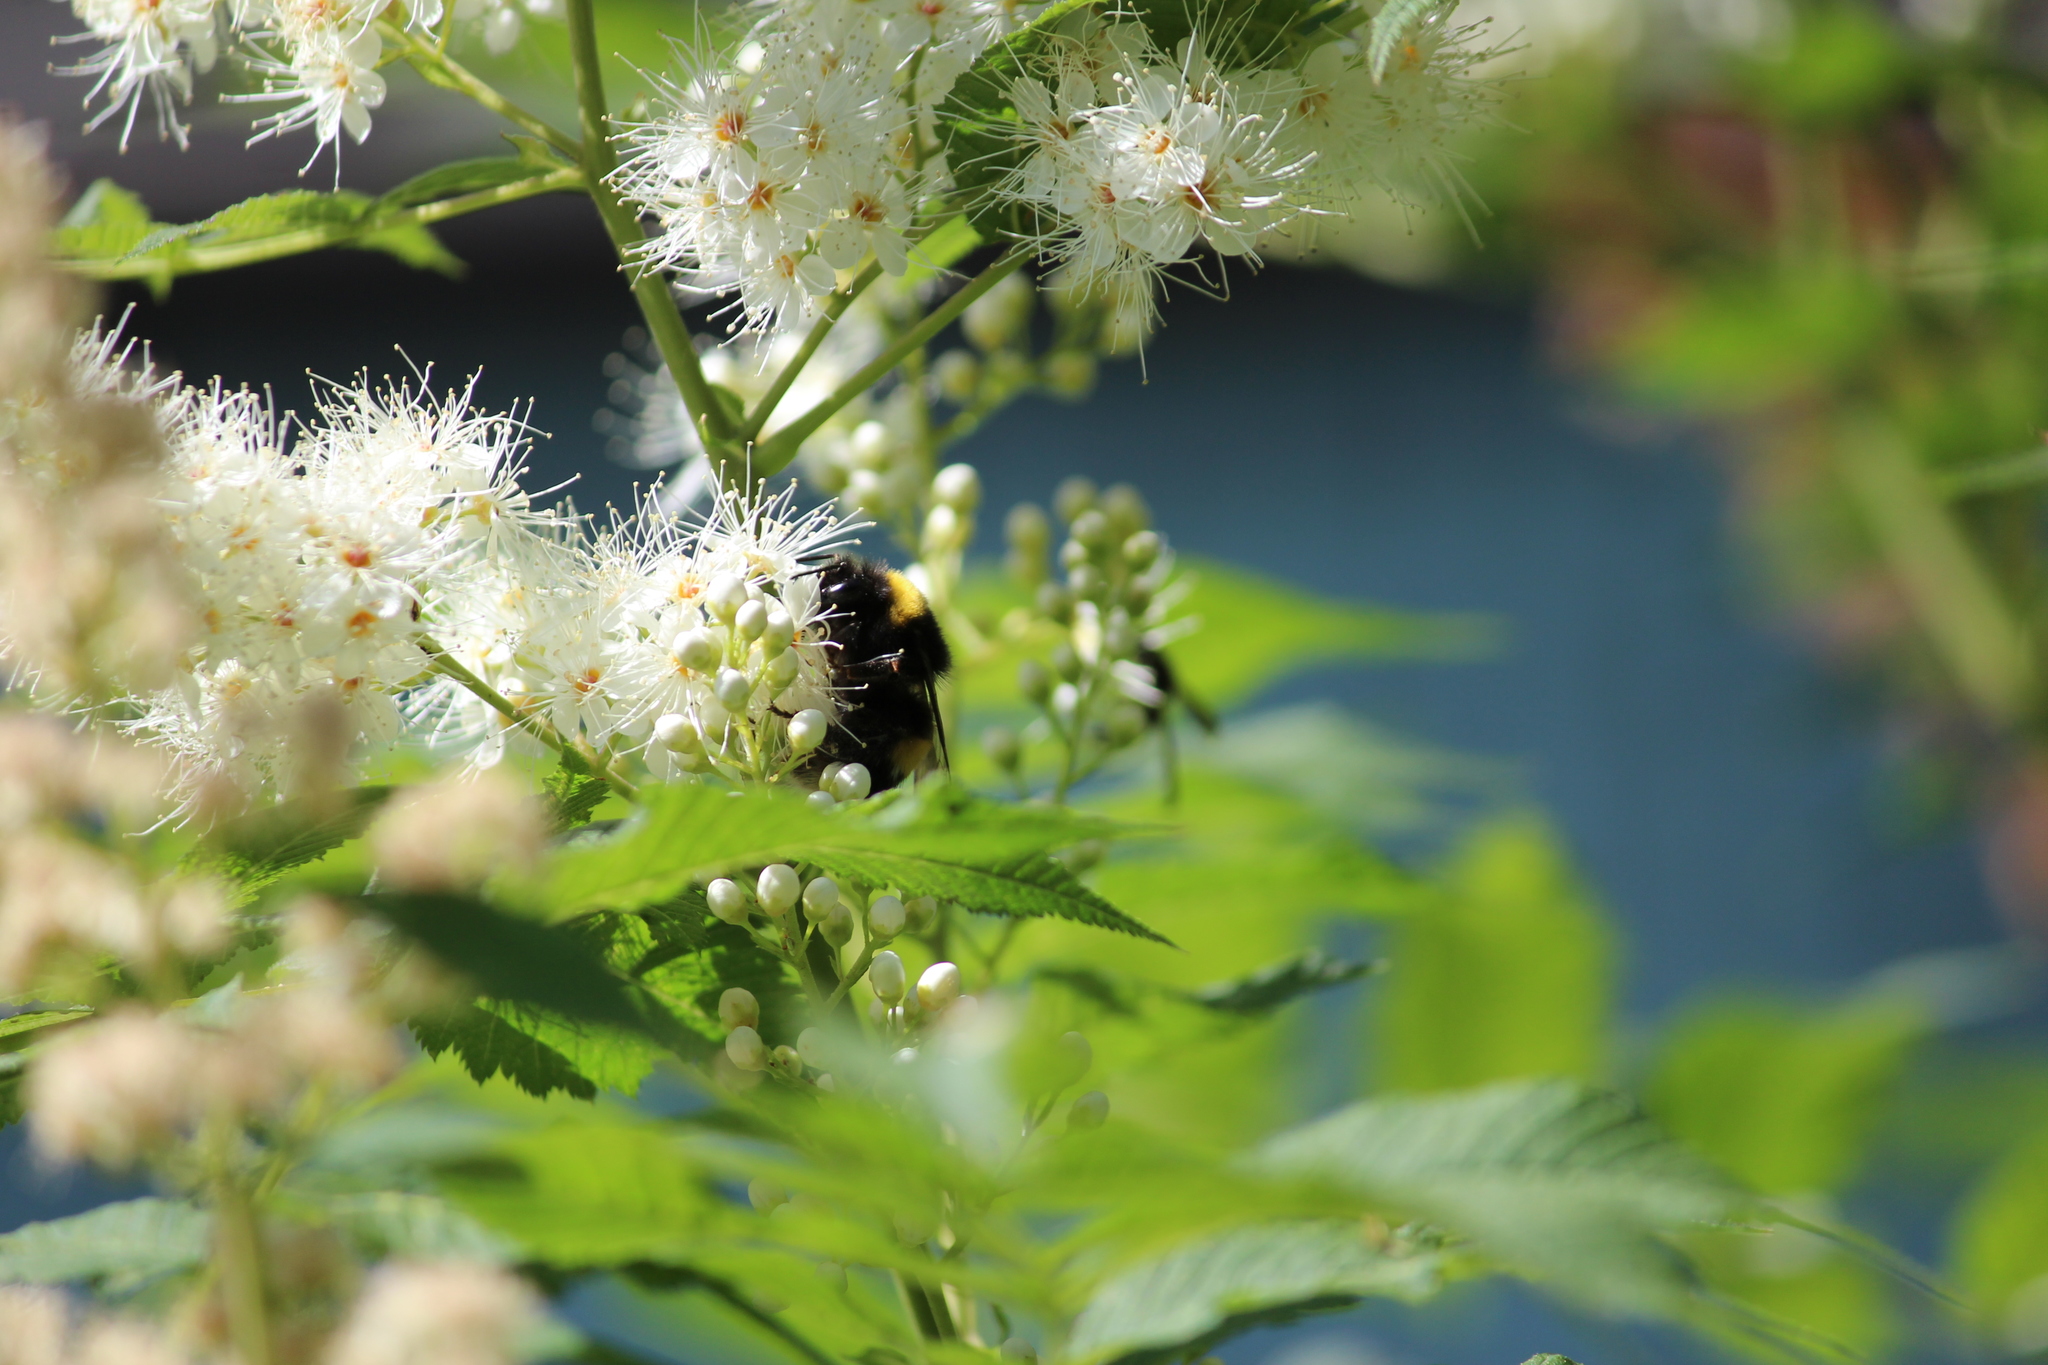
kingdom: Animalia
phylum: Arthropoda
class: Insecta
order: Hymenoptera
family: Apidae
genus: Bombus
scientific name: Bombus
